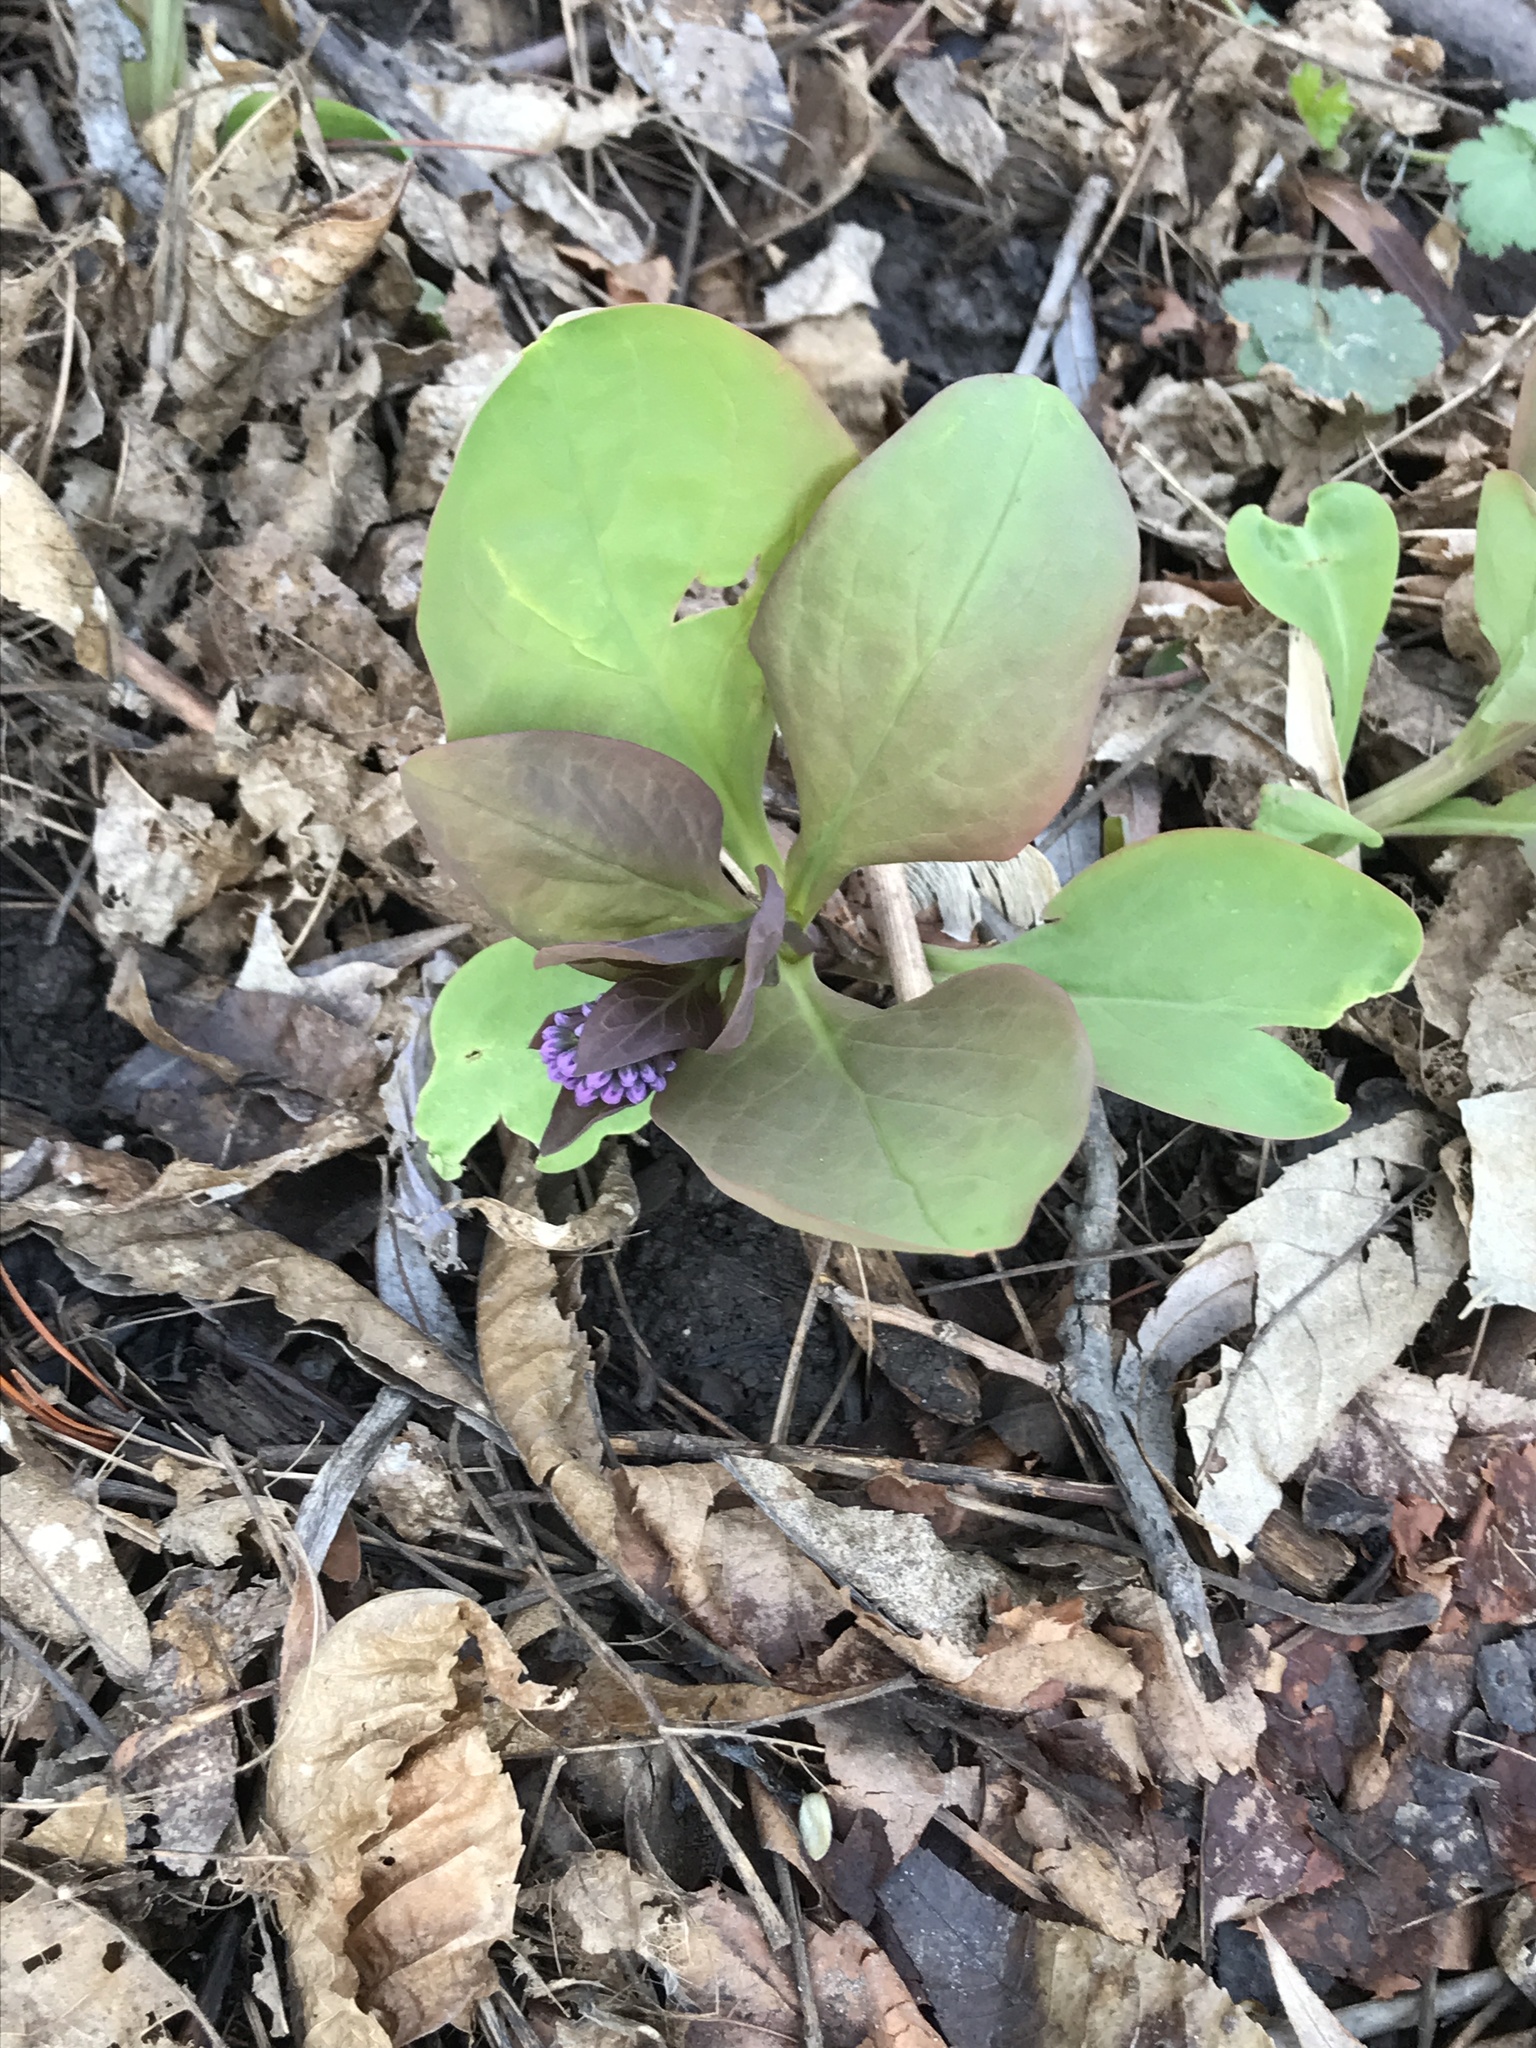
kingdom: Plantae
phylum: Tracheophyta
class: Magnoliopsida
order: Boraginales
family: Boraginaceae
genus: Mertensia
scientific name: Mertensia virginica
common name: Virginia bluebells
